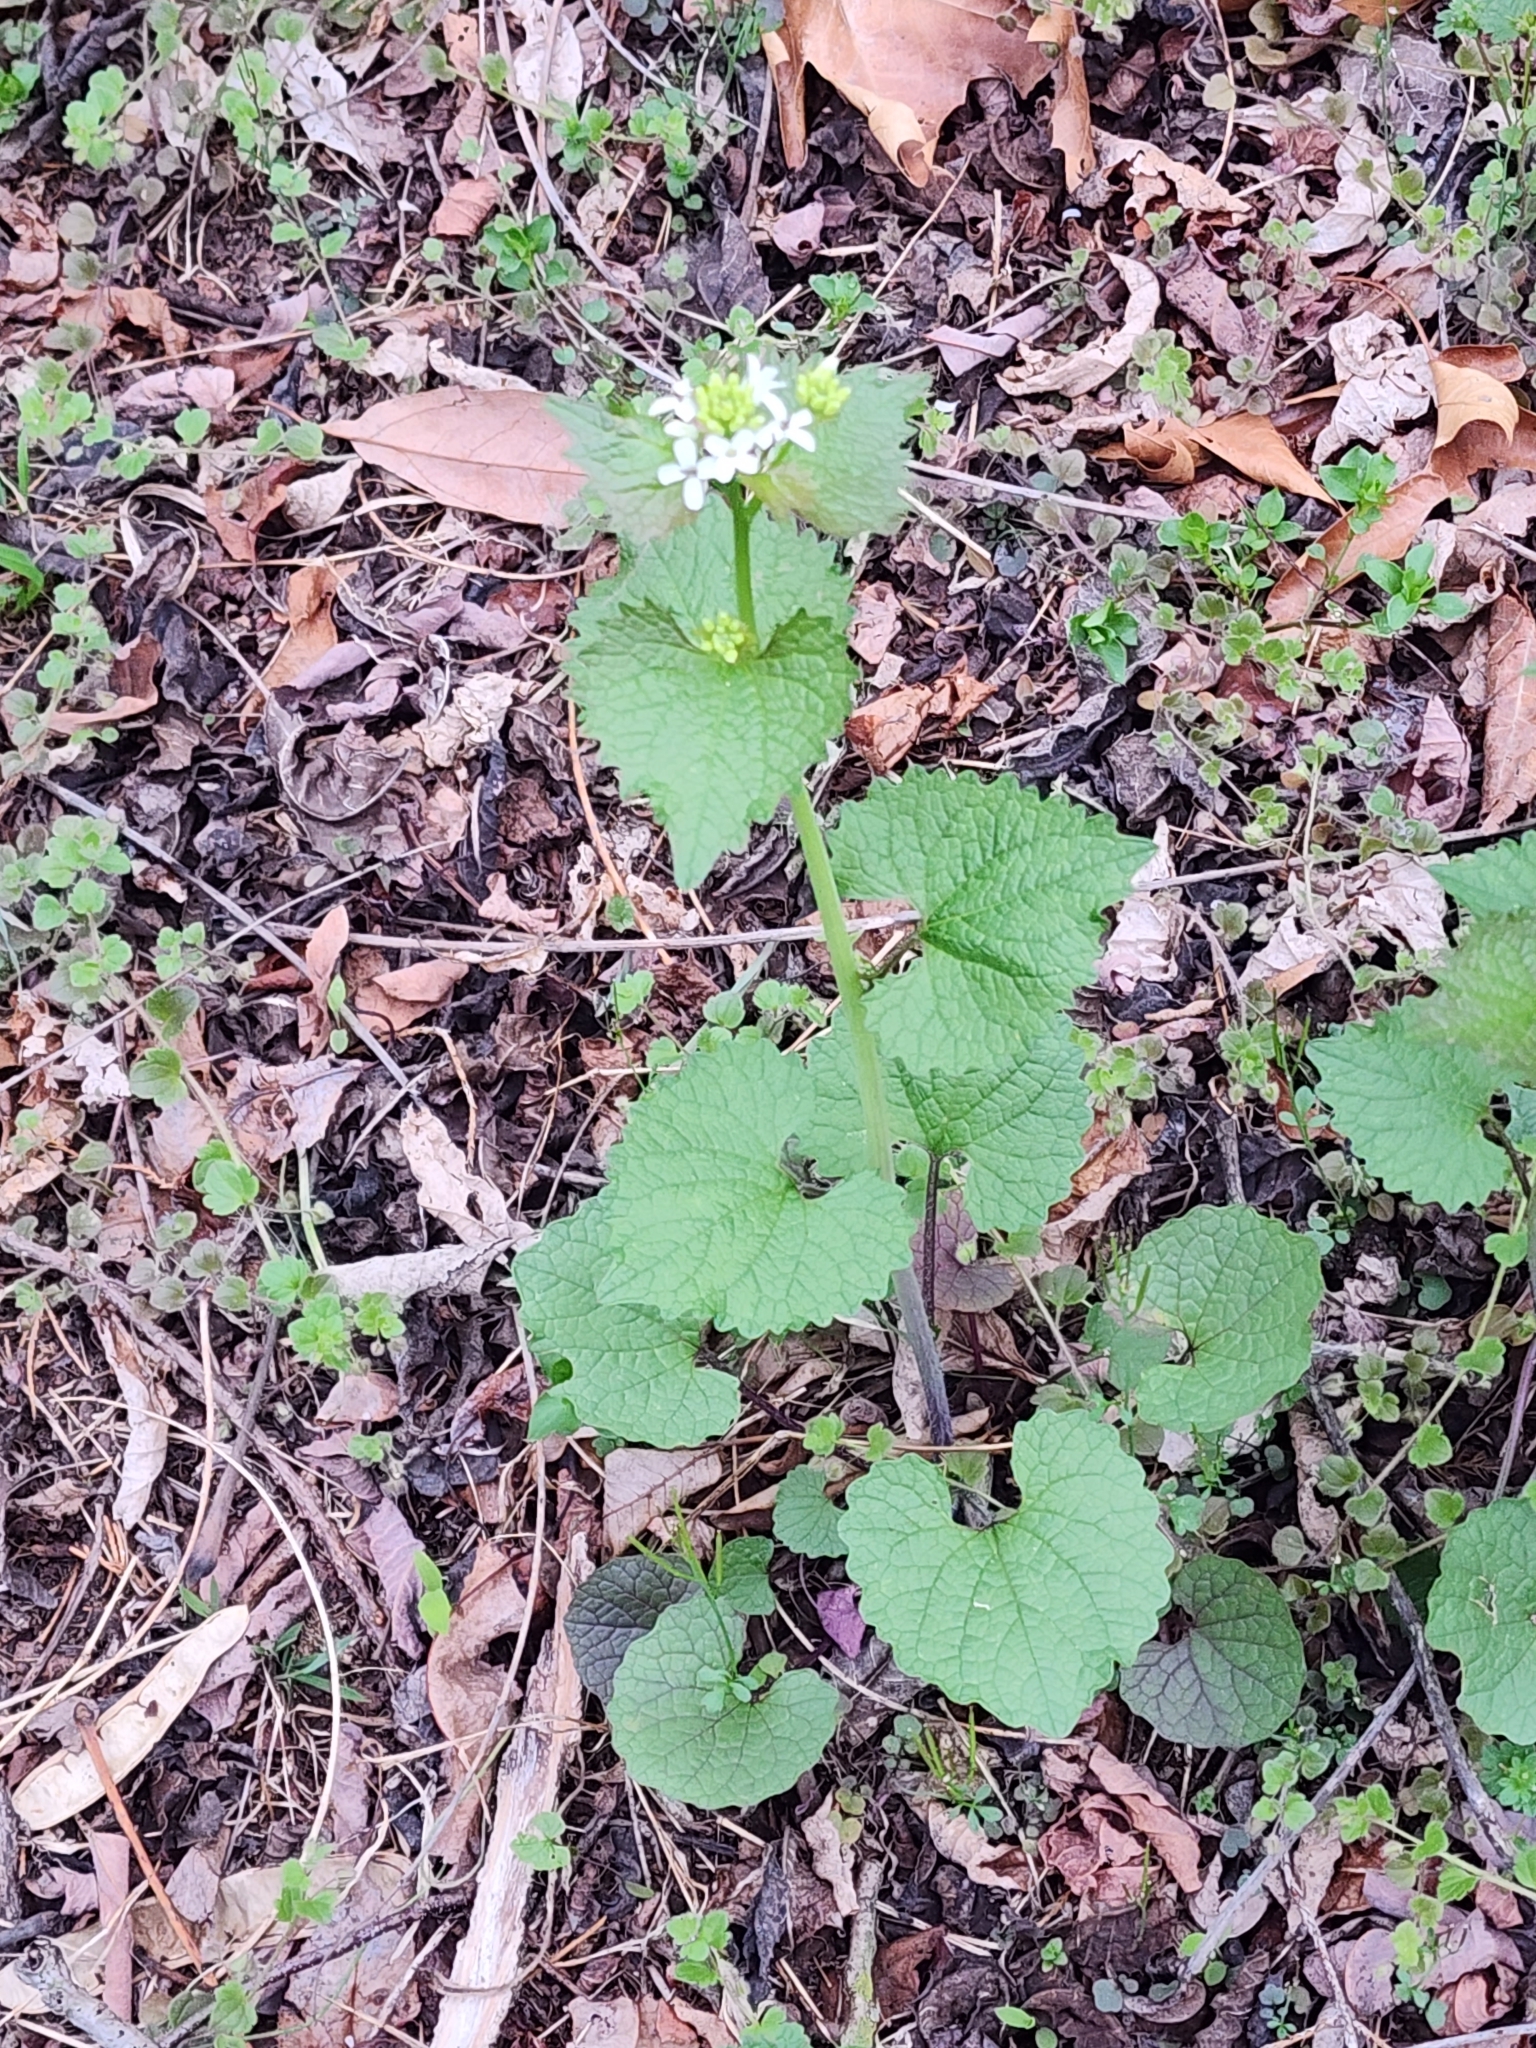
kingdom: Plantae
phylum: Tracheophyta
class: Magnoliopsida
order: Brassicales
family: Brassicaceae
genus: Alliaria
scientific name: Alliaria petiolata
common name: Garlic mustard
